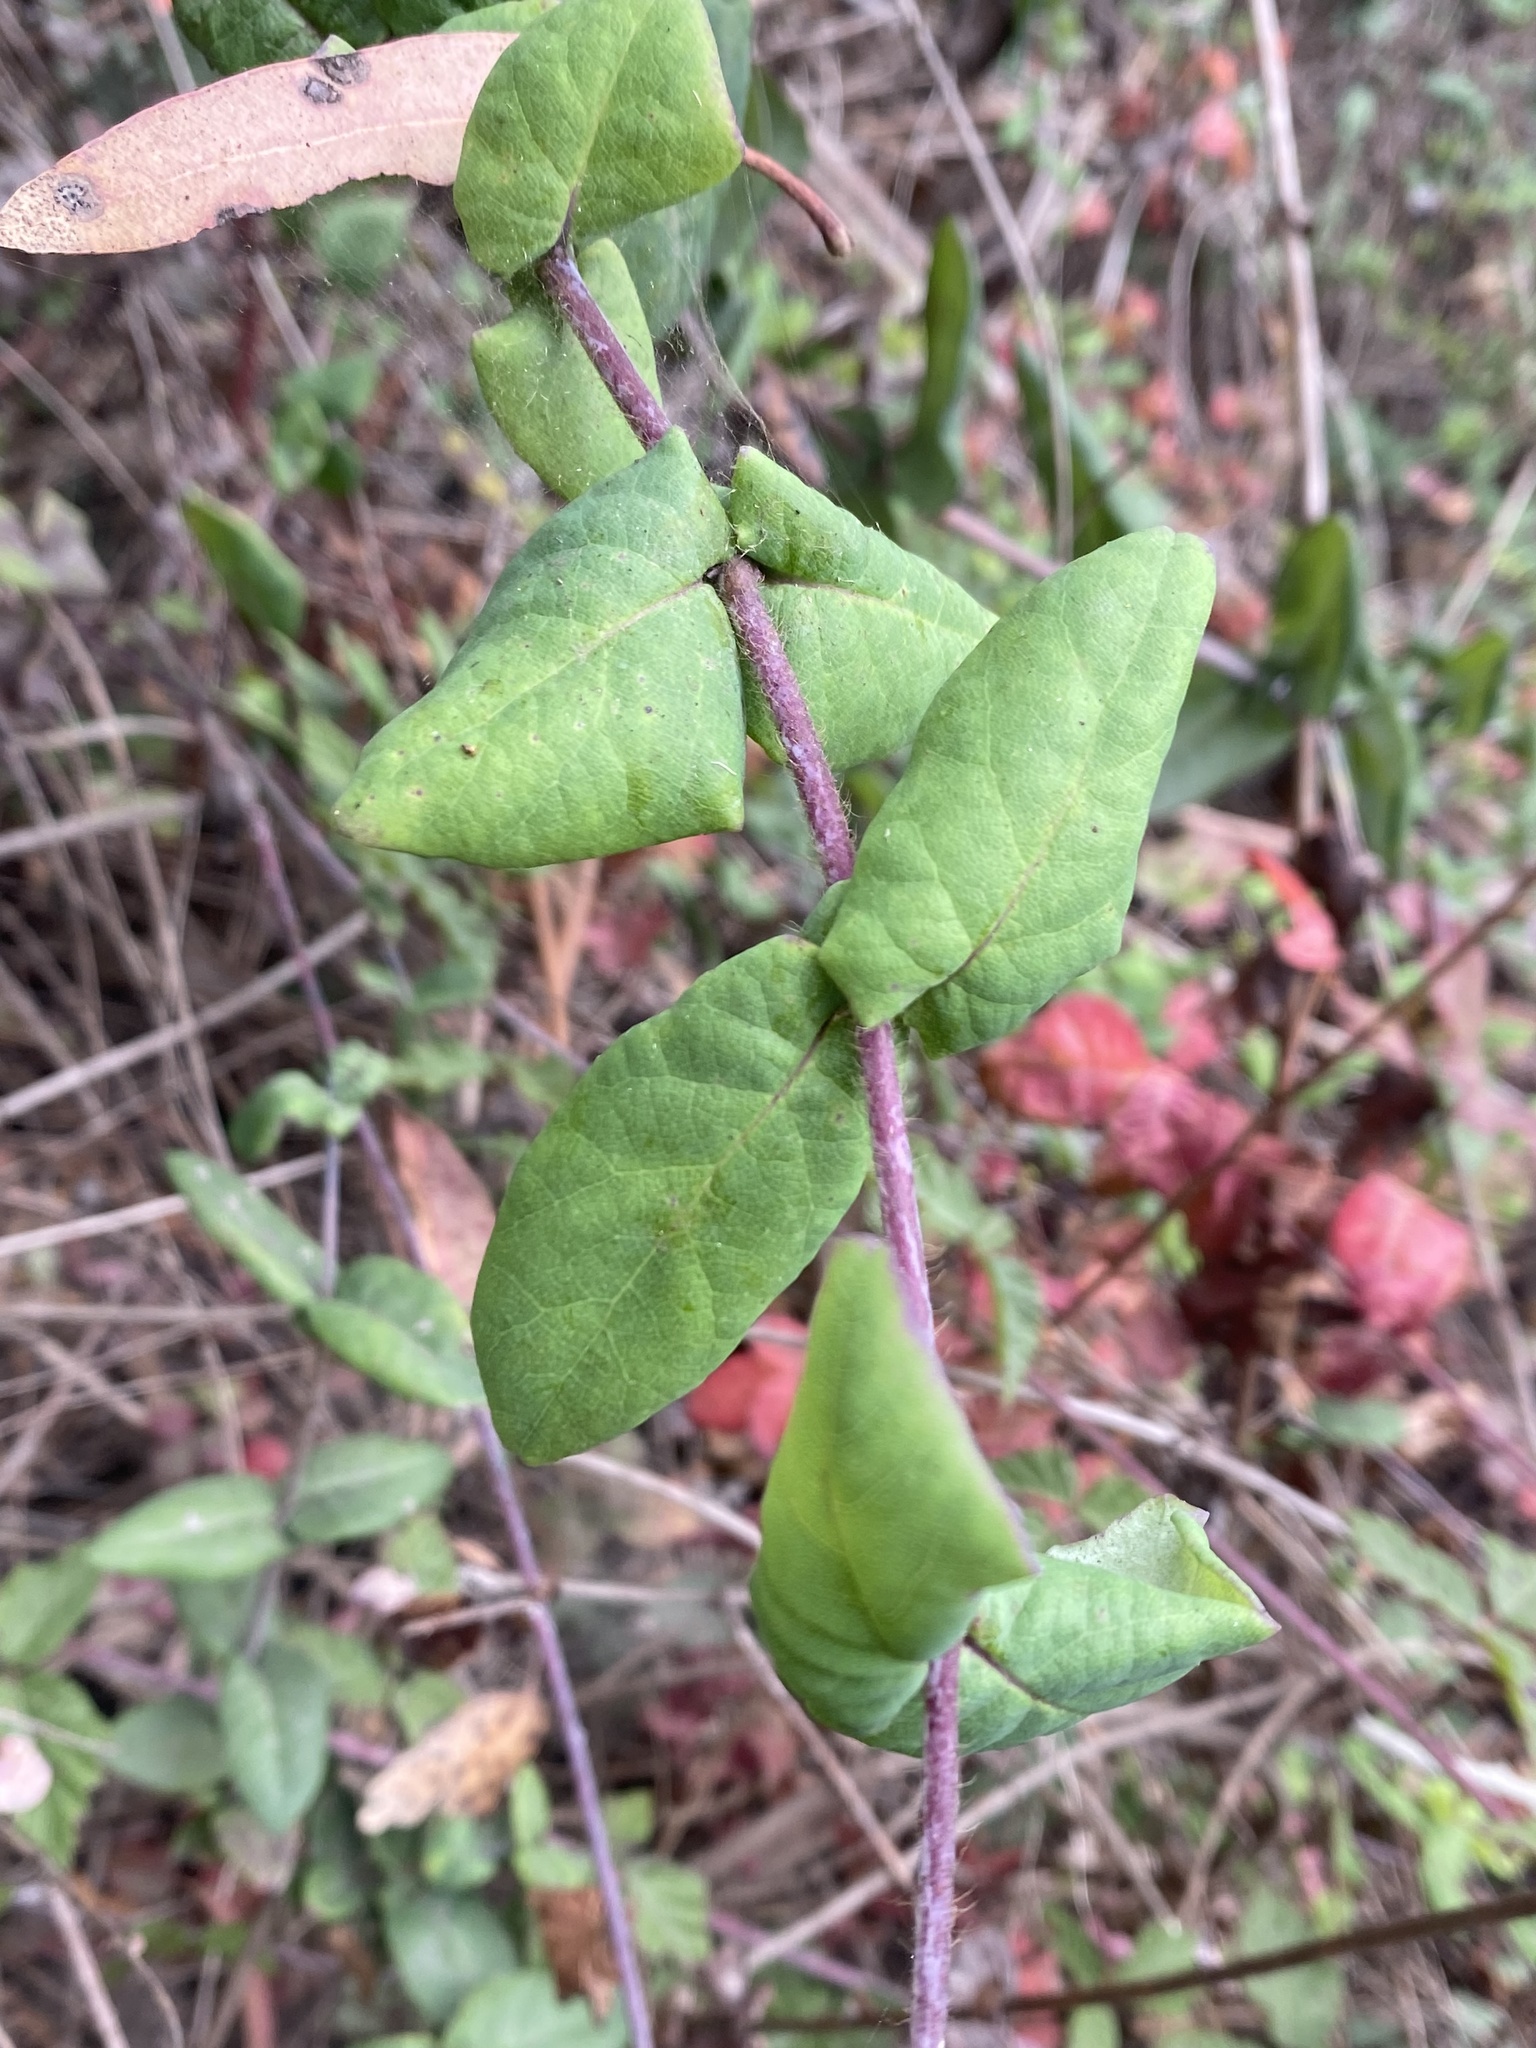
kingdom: Plantae
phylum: Tracheophyta
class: Magnoliopsida
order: Dipsacales
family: Caprifoliaceae
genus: Lonicera
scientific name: Lonicera hispidula
